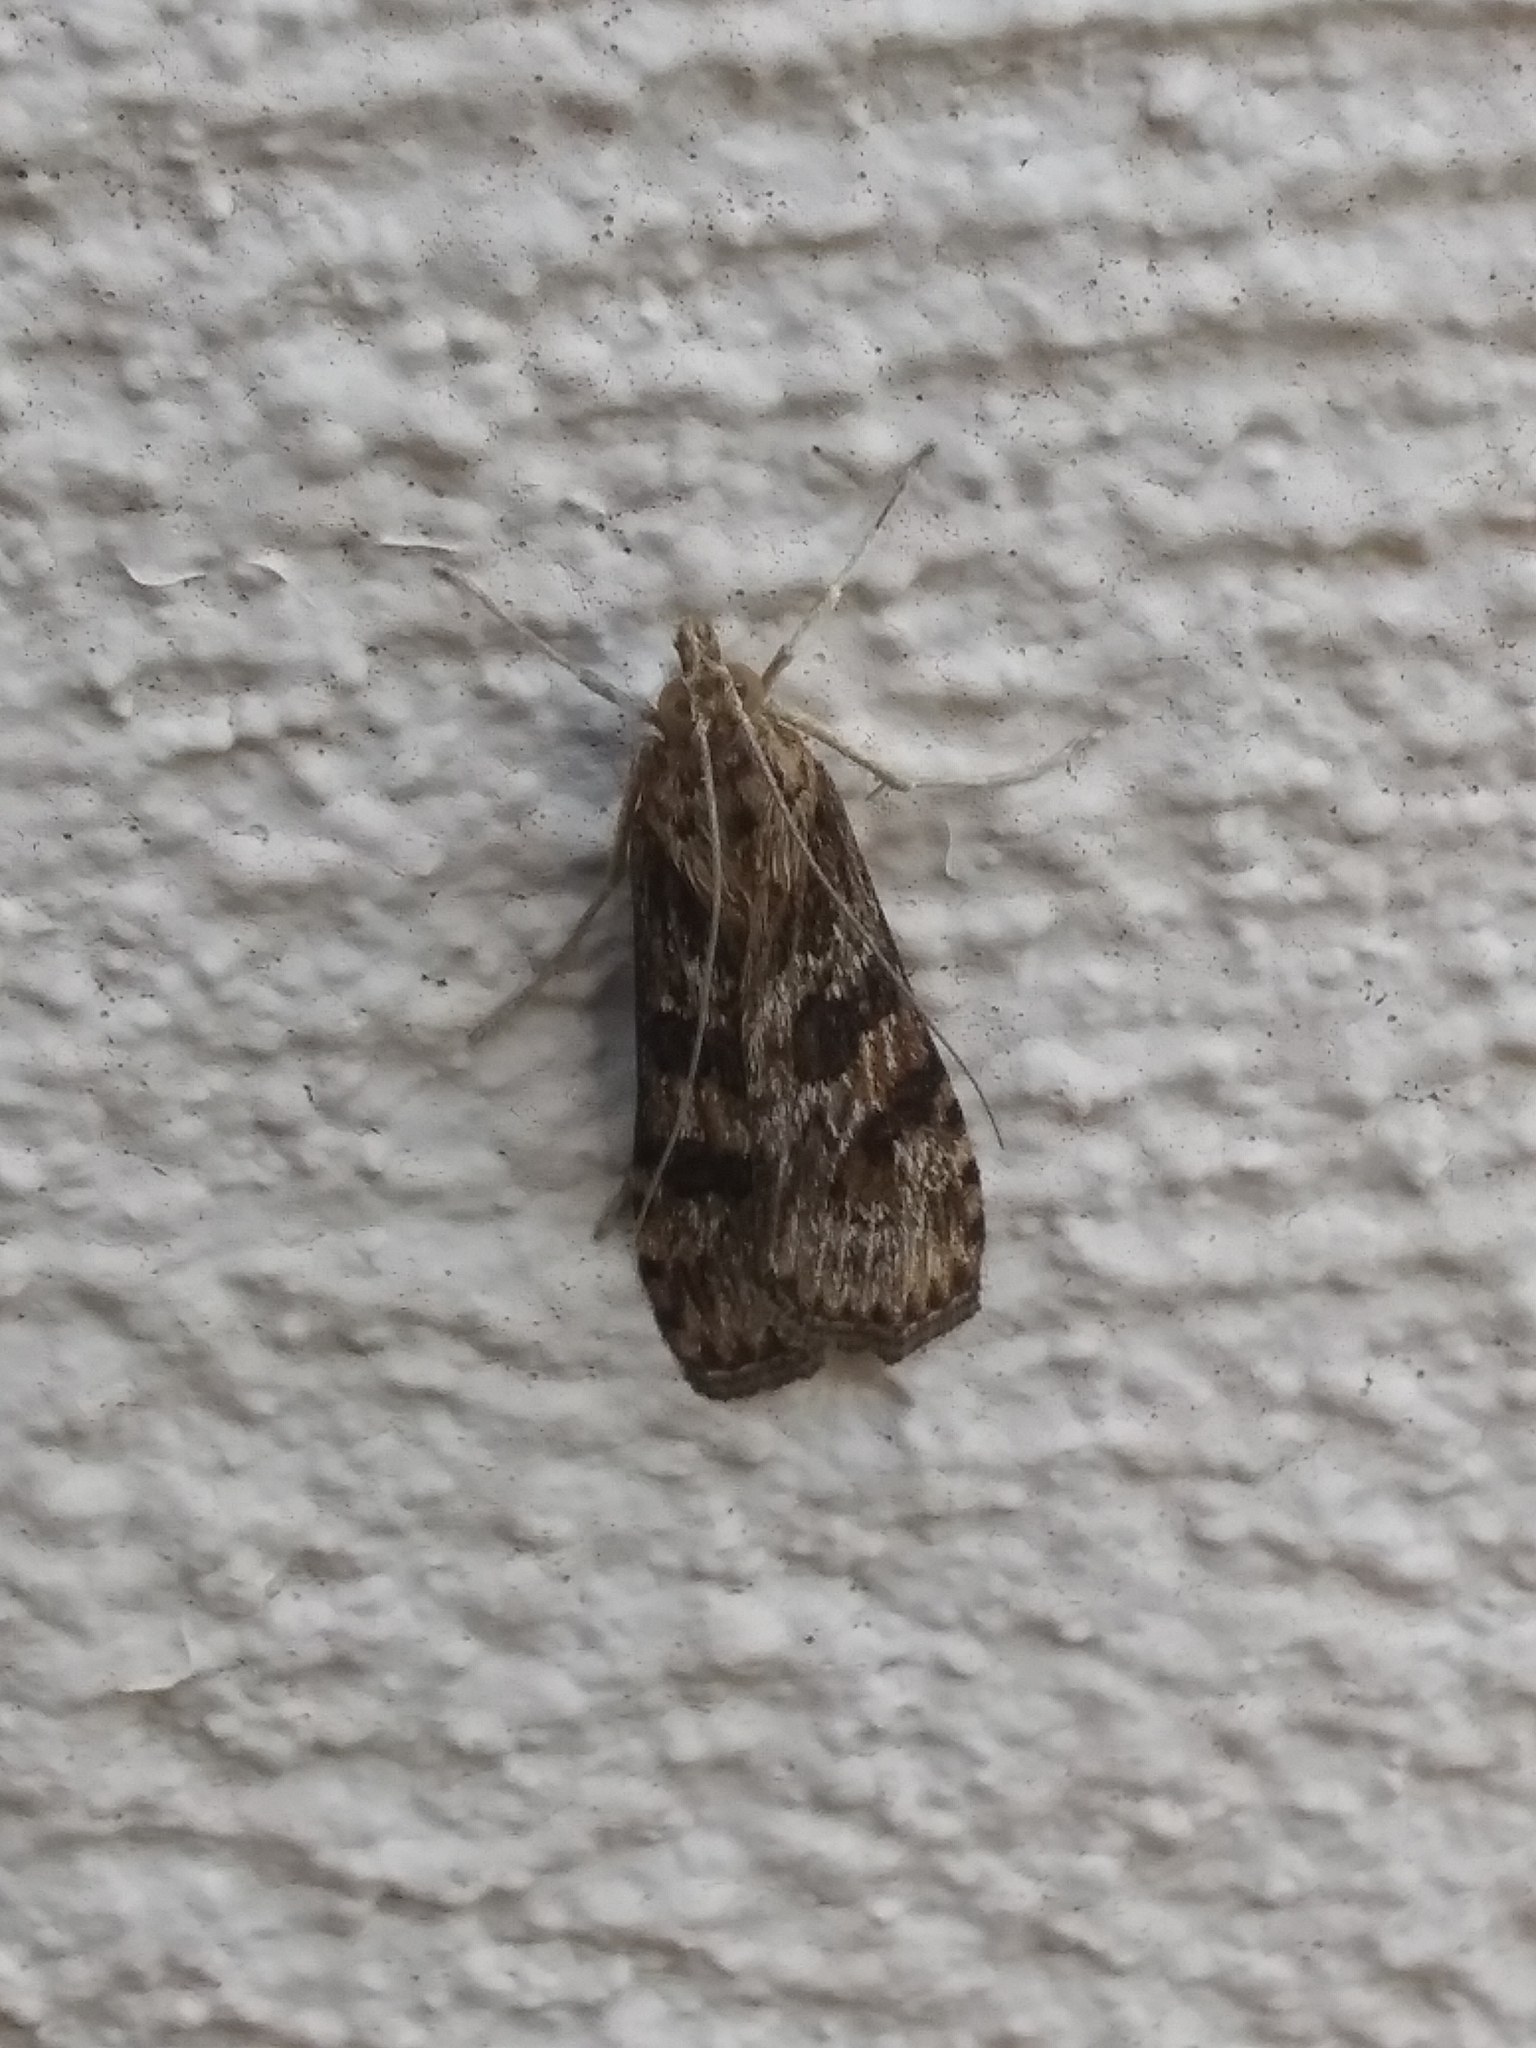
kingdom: Animalia
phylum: Arthropoda
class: Insecta
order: Lepidoptera
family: Crambidae
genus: Nomophila
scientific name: Nomophila nearctica
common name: American rush veneer
